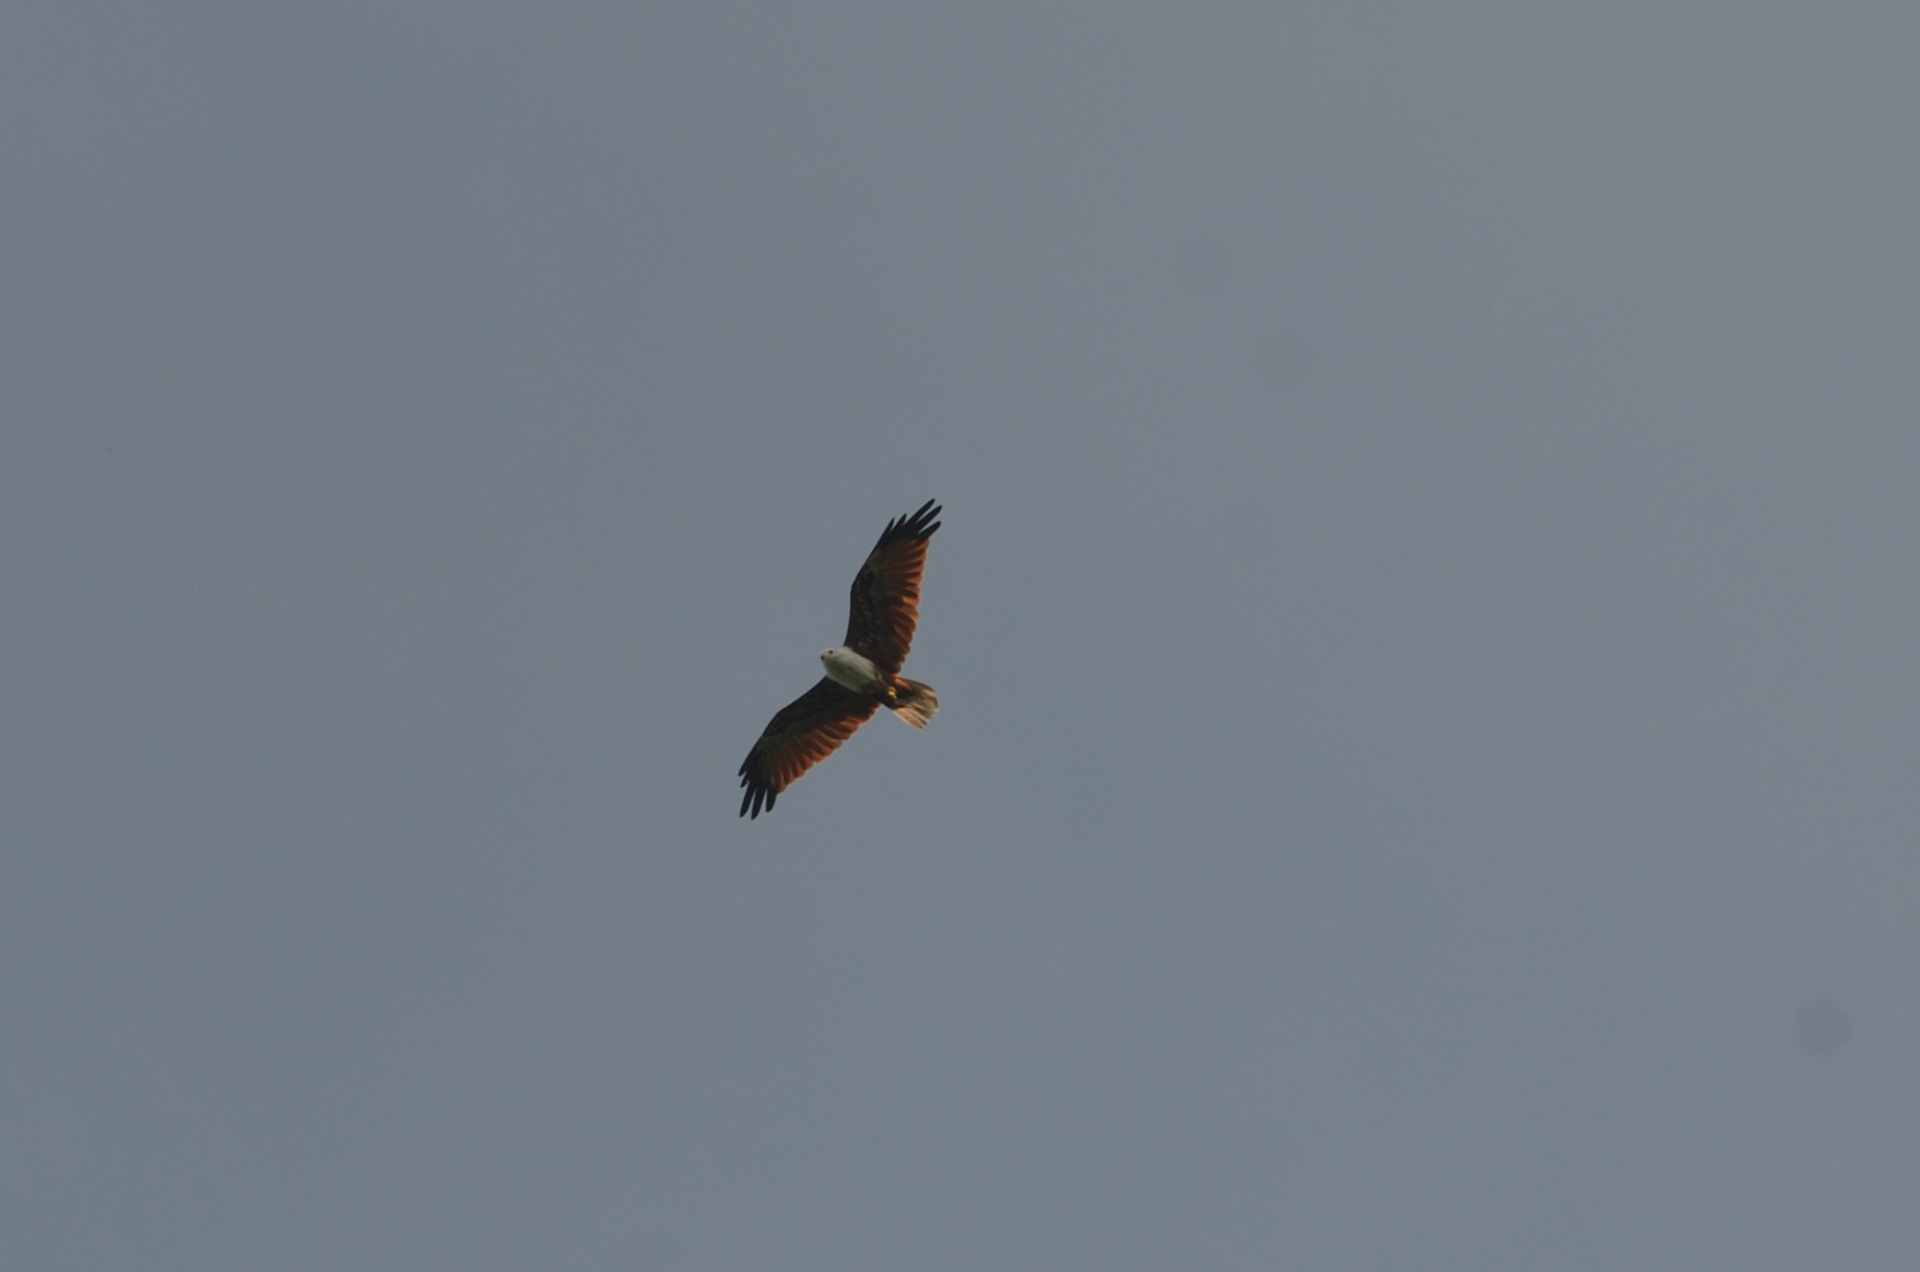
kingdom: Animalia
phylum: Chordata
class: Aves
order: Accipitriformes
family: Accipitridae
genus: Haliastur
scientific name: Haliastur indus
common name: Brahminy kite
